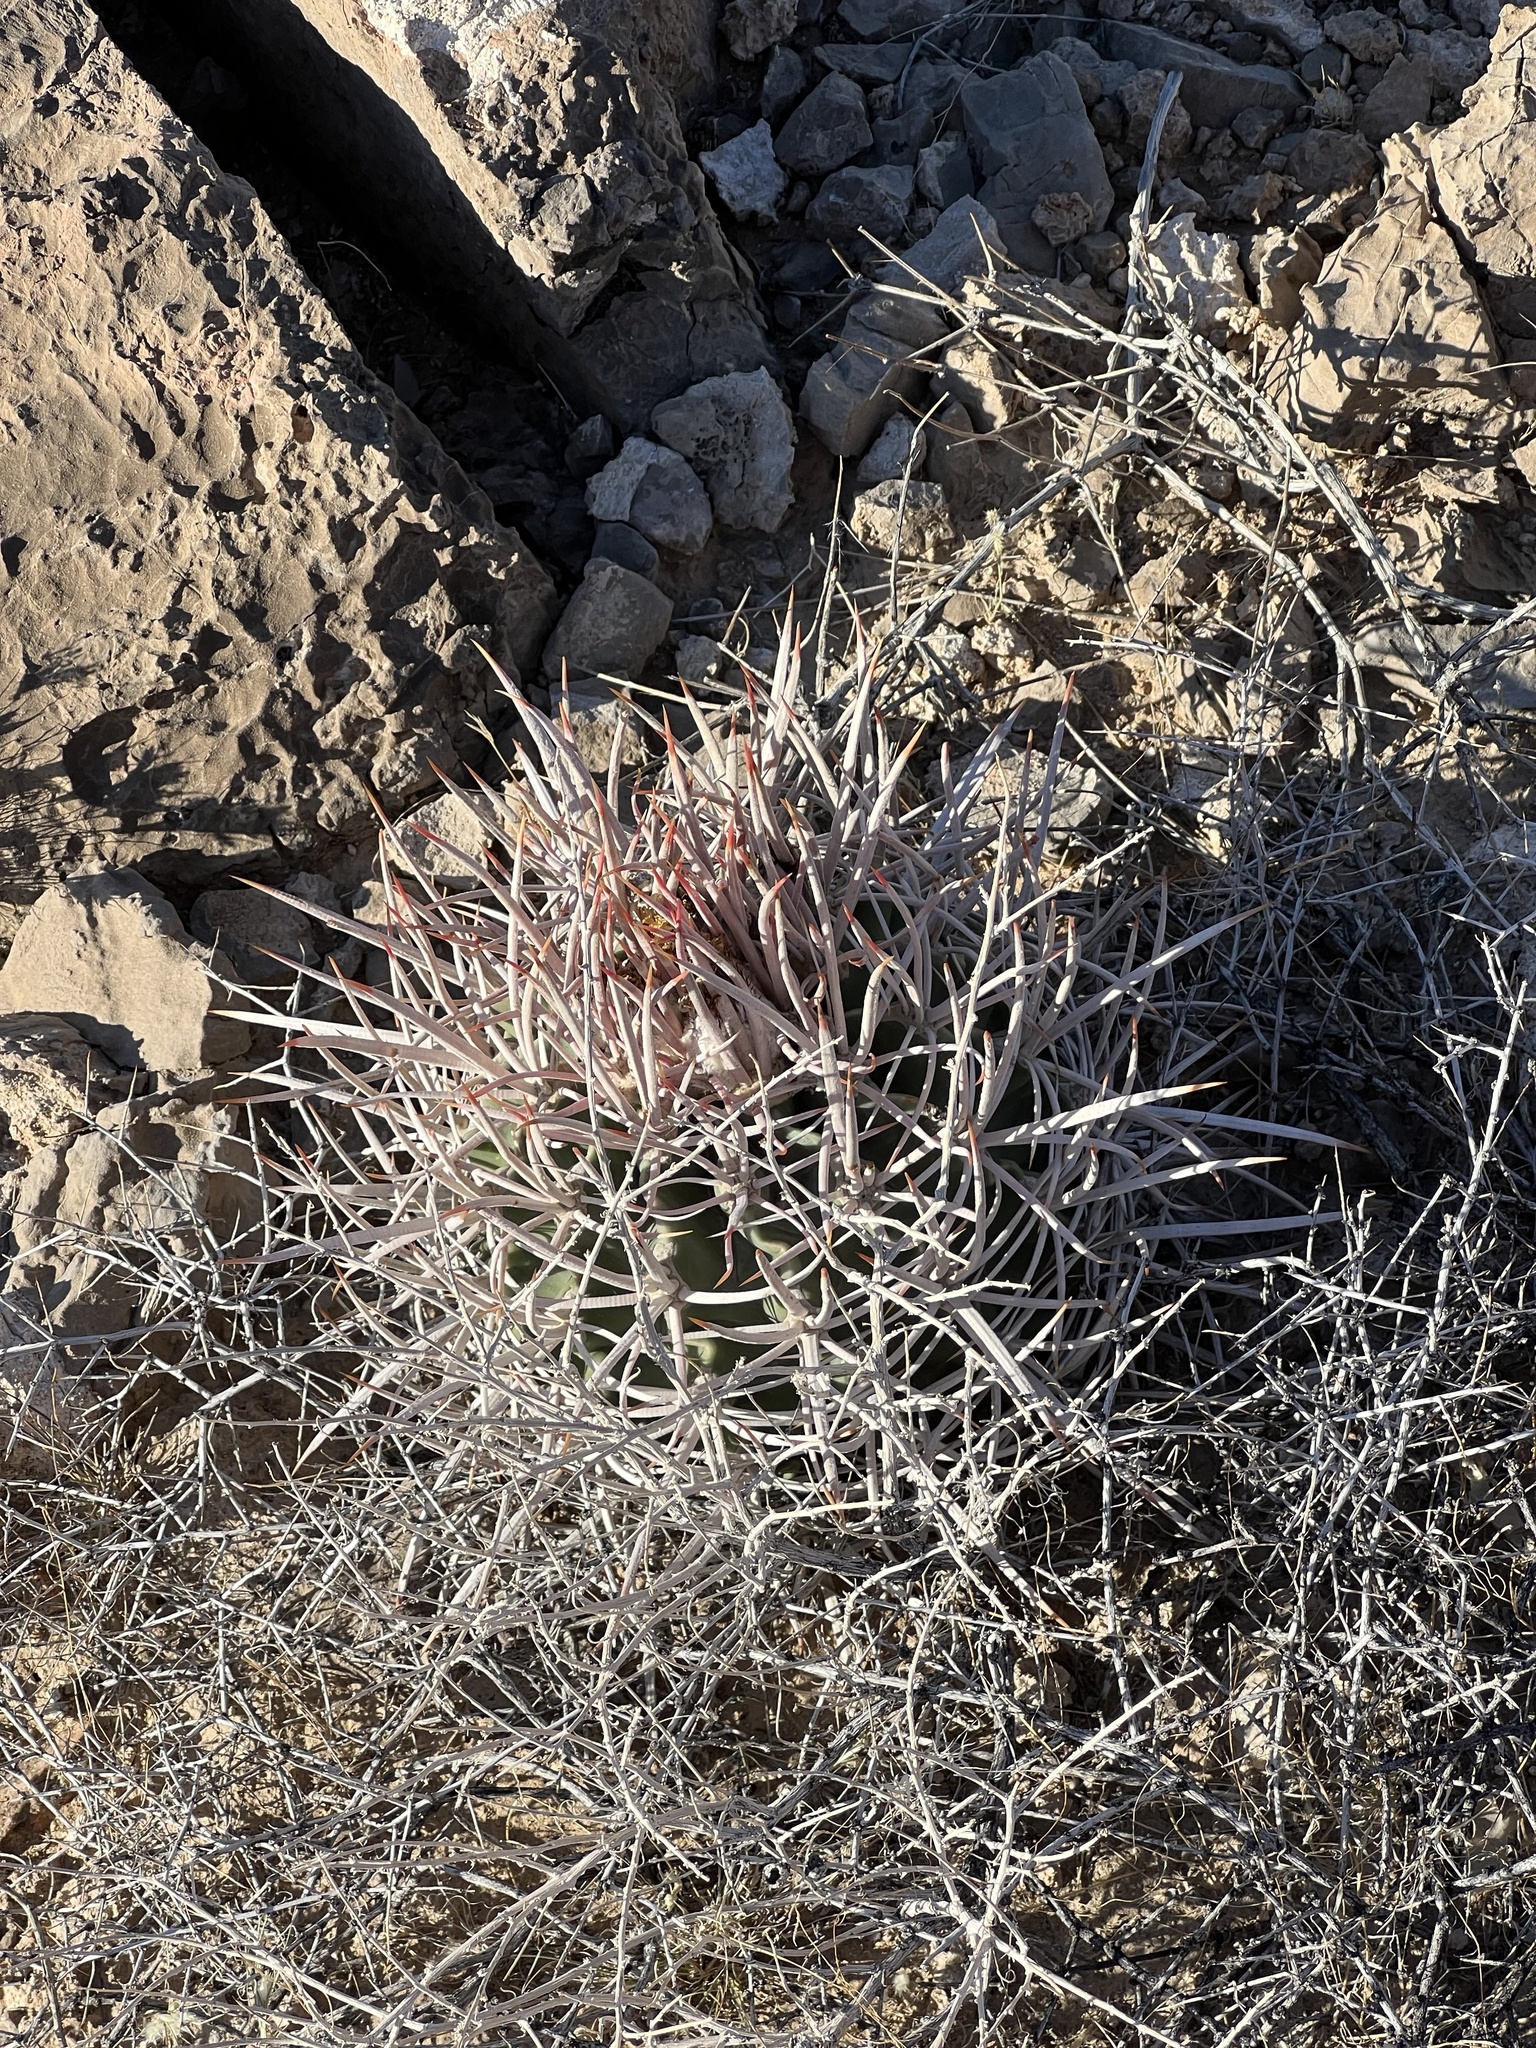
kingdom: Plantae
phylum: Tracheophyta
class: Magnoliopsida
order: Caryophyllales
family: Cactaceae
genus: Echinocactus
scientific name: Echinocactus polycephalus
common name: Cottontop cactus
